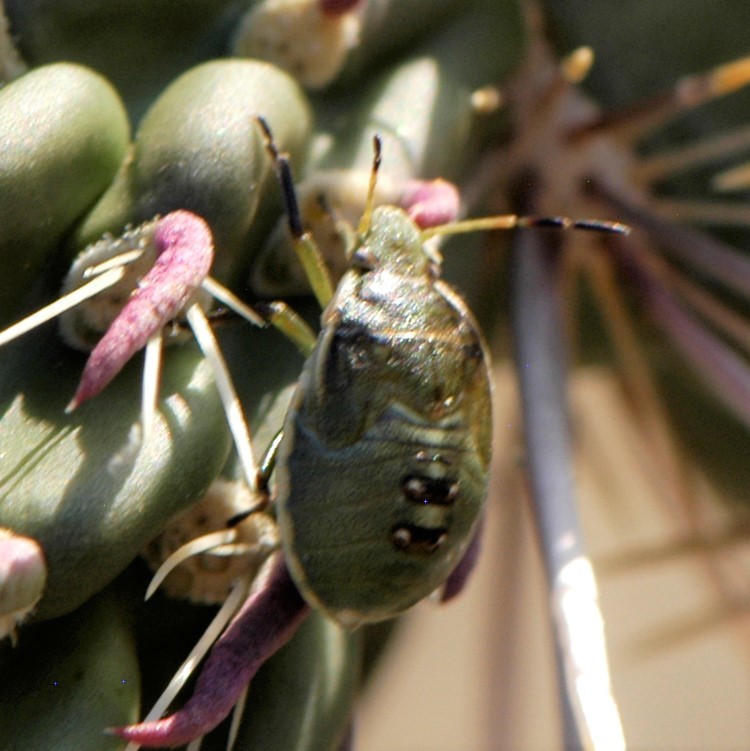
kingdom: Animalia
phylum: Arthropoda
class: Insecta
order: Hemiptera
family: Pentatomidae
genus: Chlorochroa
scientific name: Chlorochroa opuntiae
